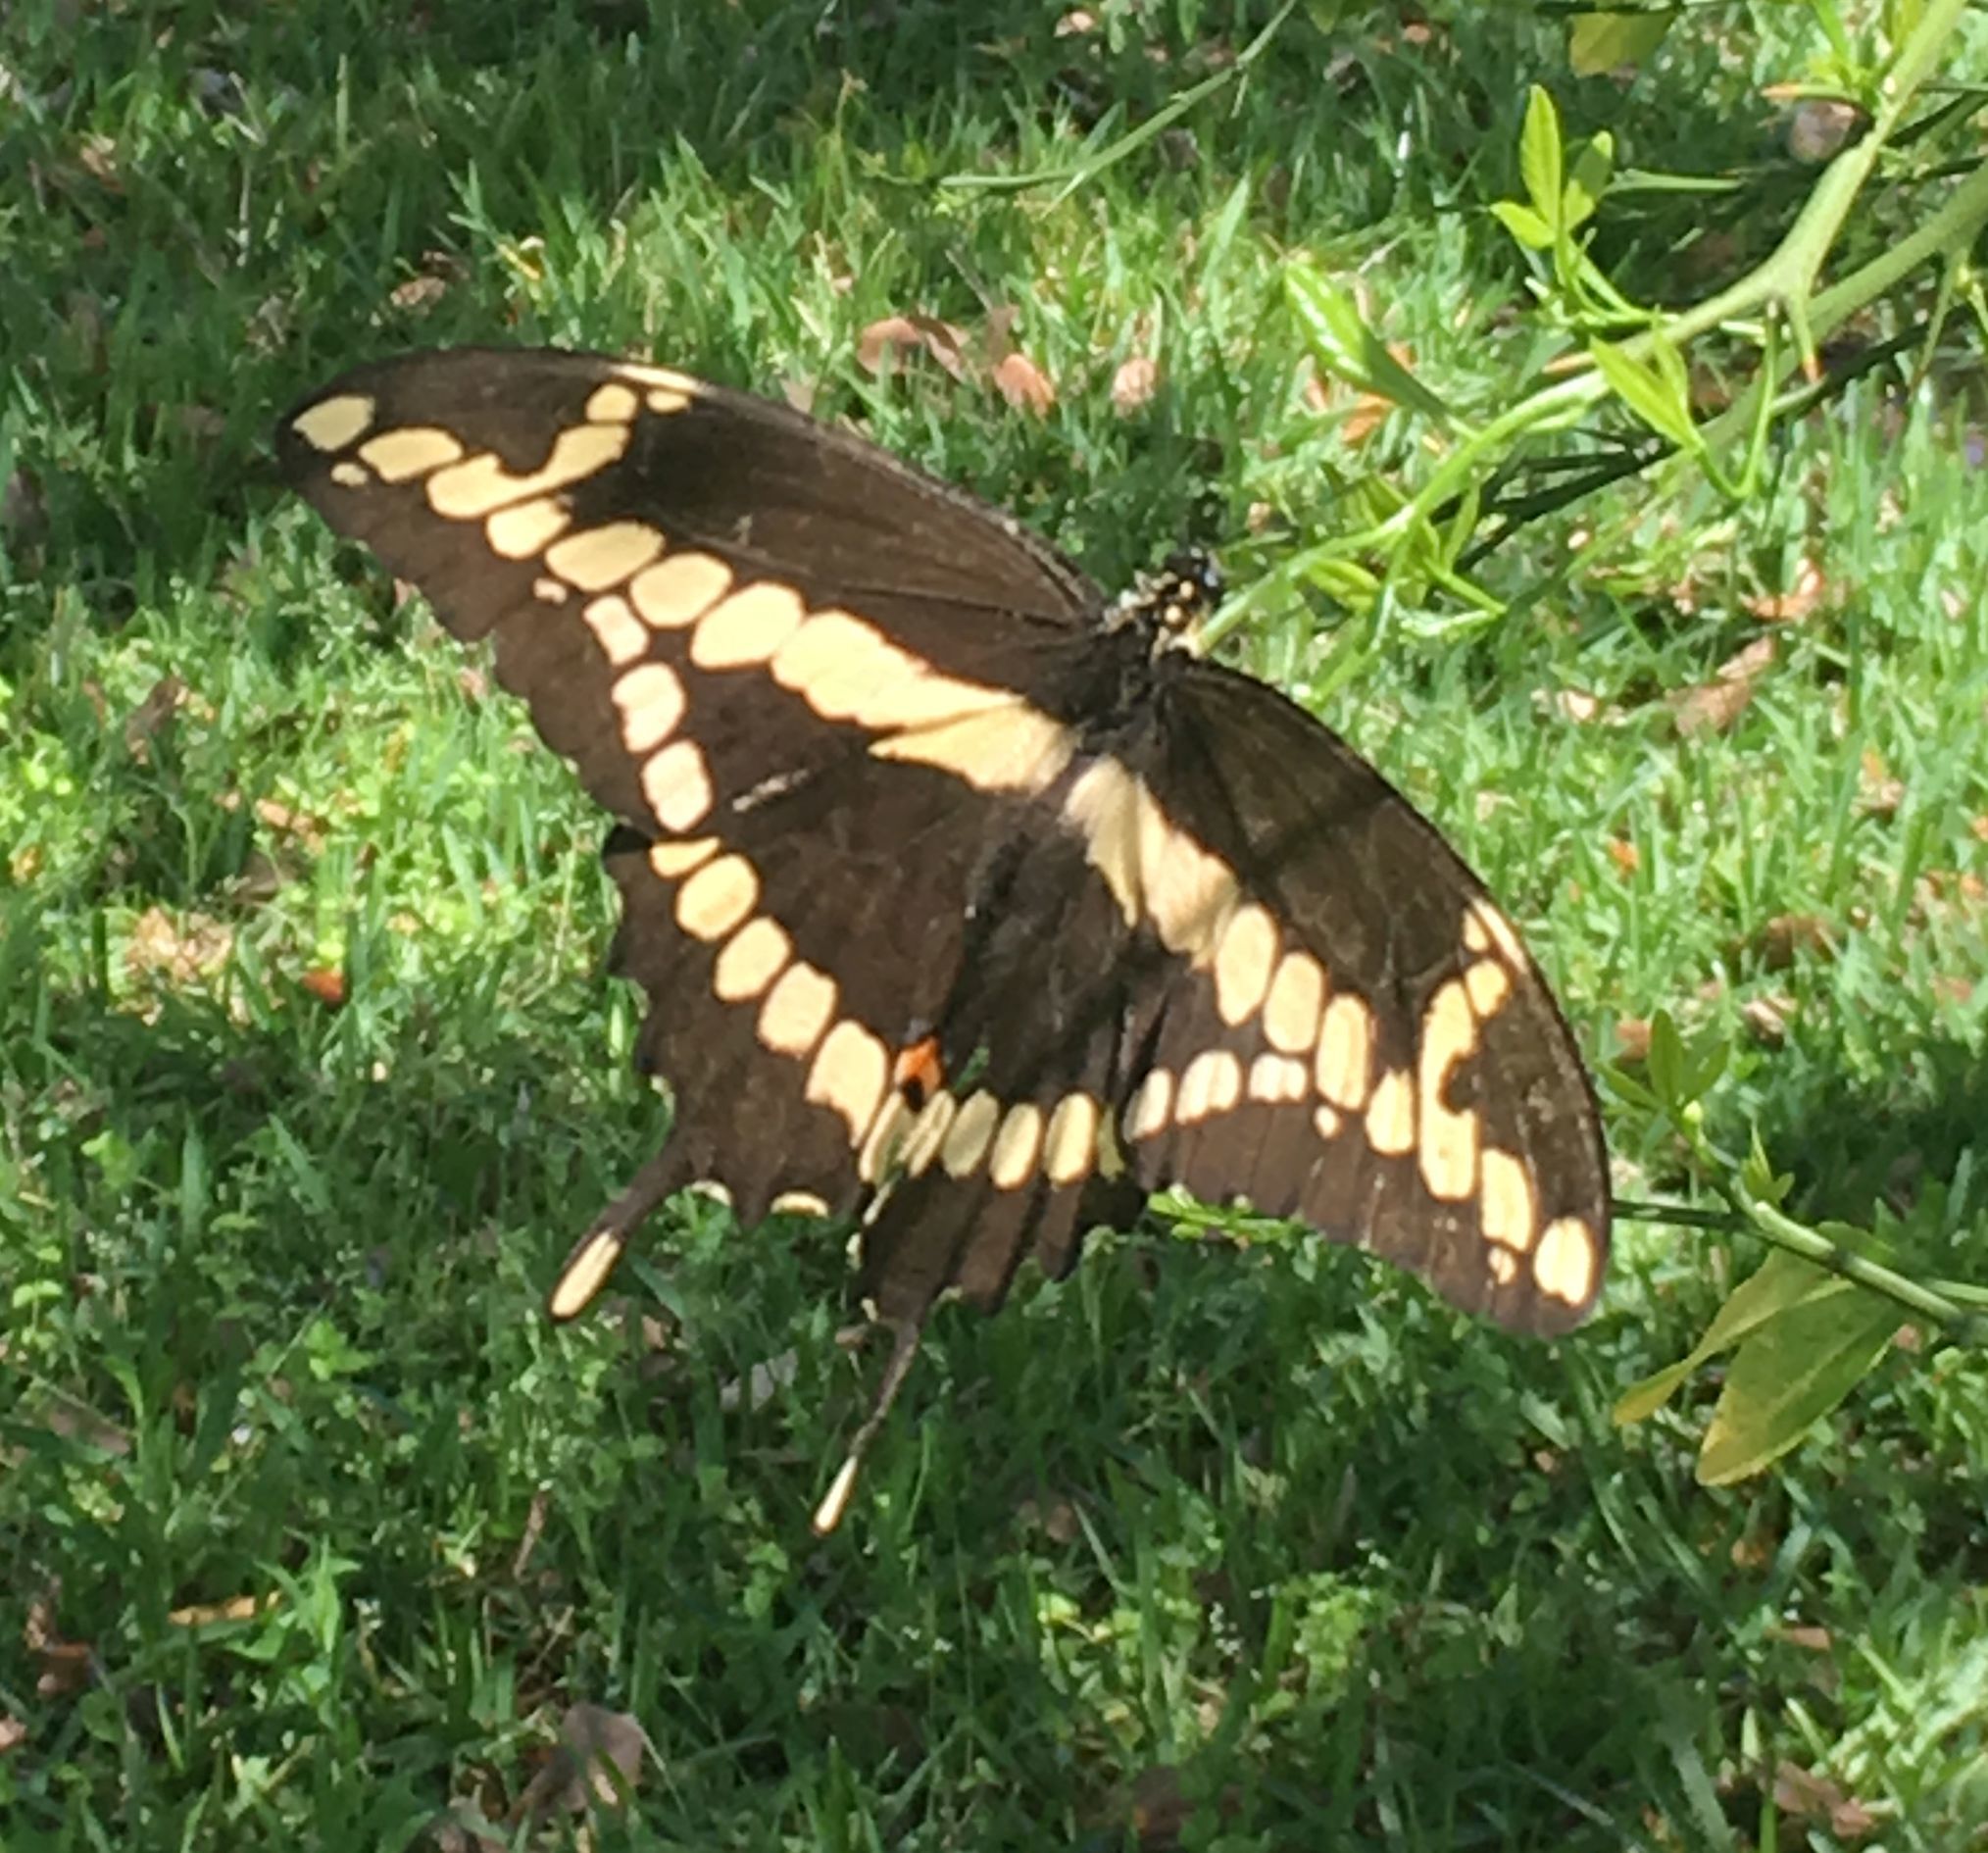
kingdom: Animalia
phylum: Arthropoda
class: Insecta
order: Lepidoptera
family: Papilionidae
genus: Papilio
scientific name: Papilio cresphontes
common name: Giant swallowtail
